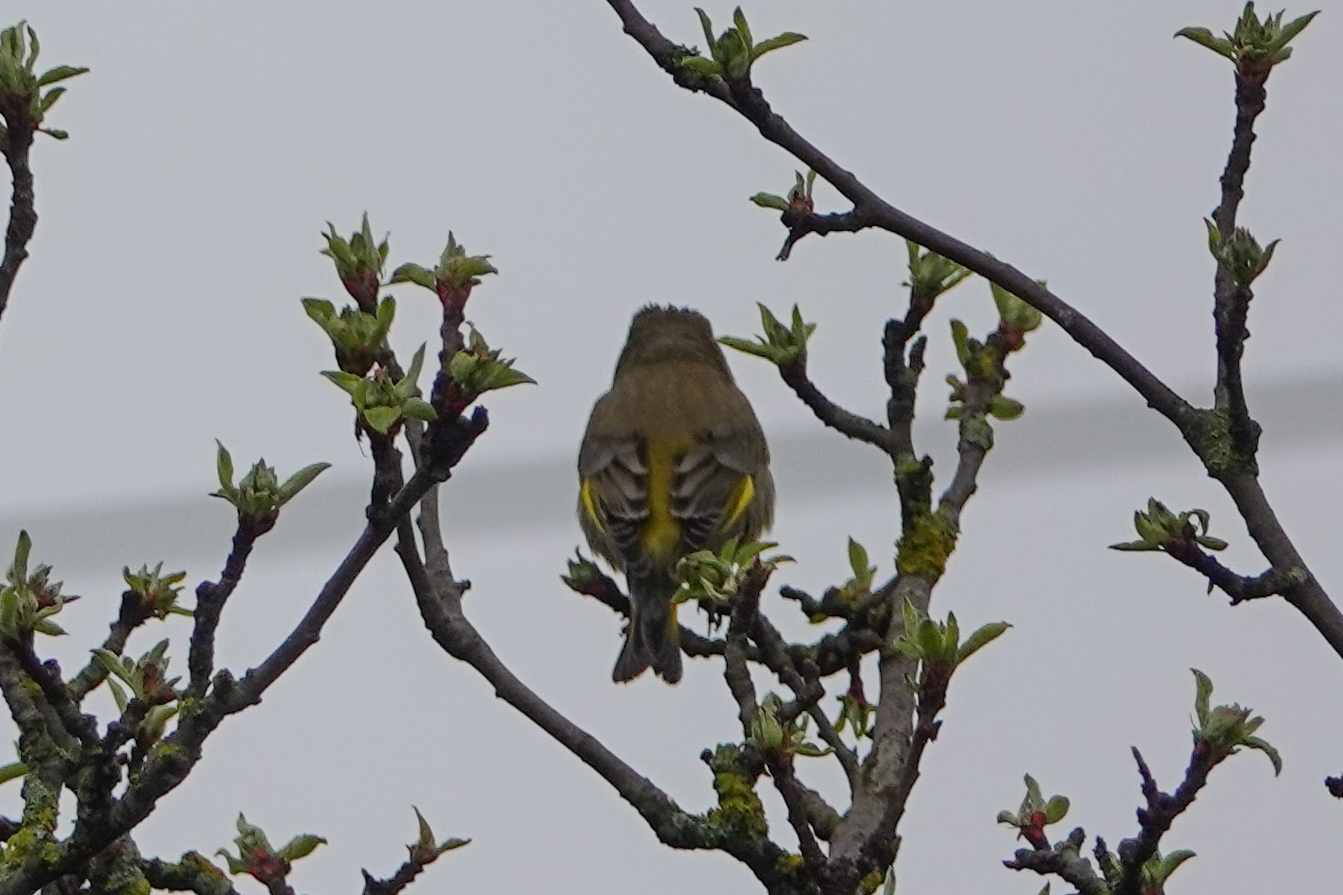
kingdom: Plantae
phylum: Tracheophyta
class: Liliopsida
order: Poales
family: Poaceae
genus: Chloris
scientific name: Chloris chloris
